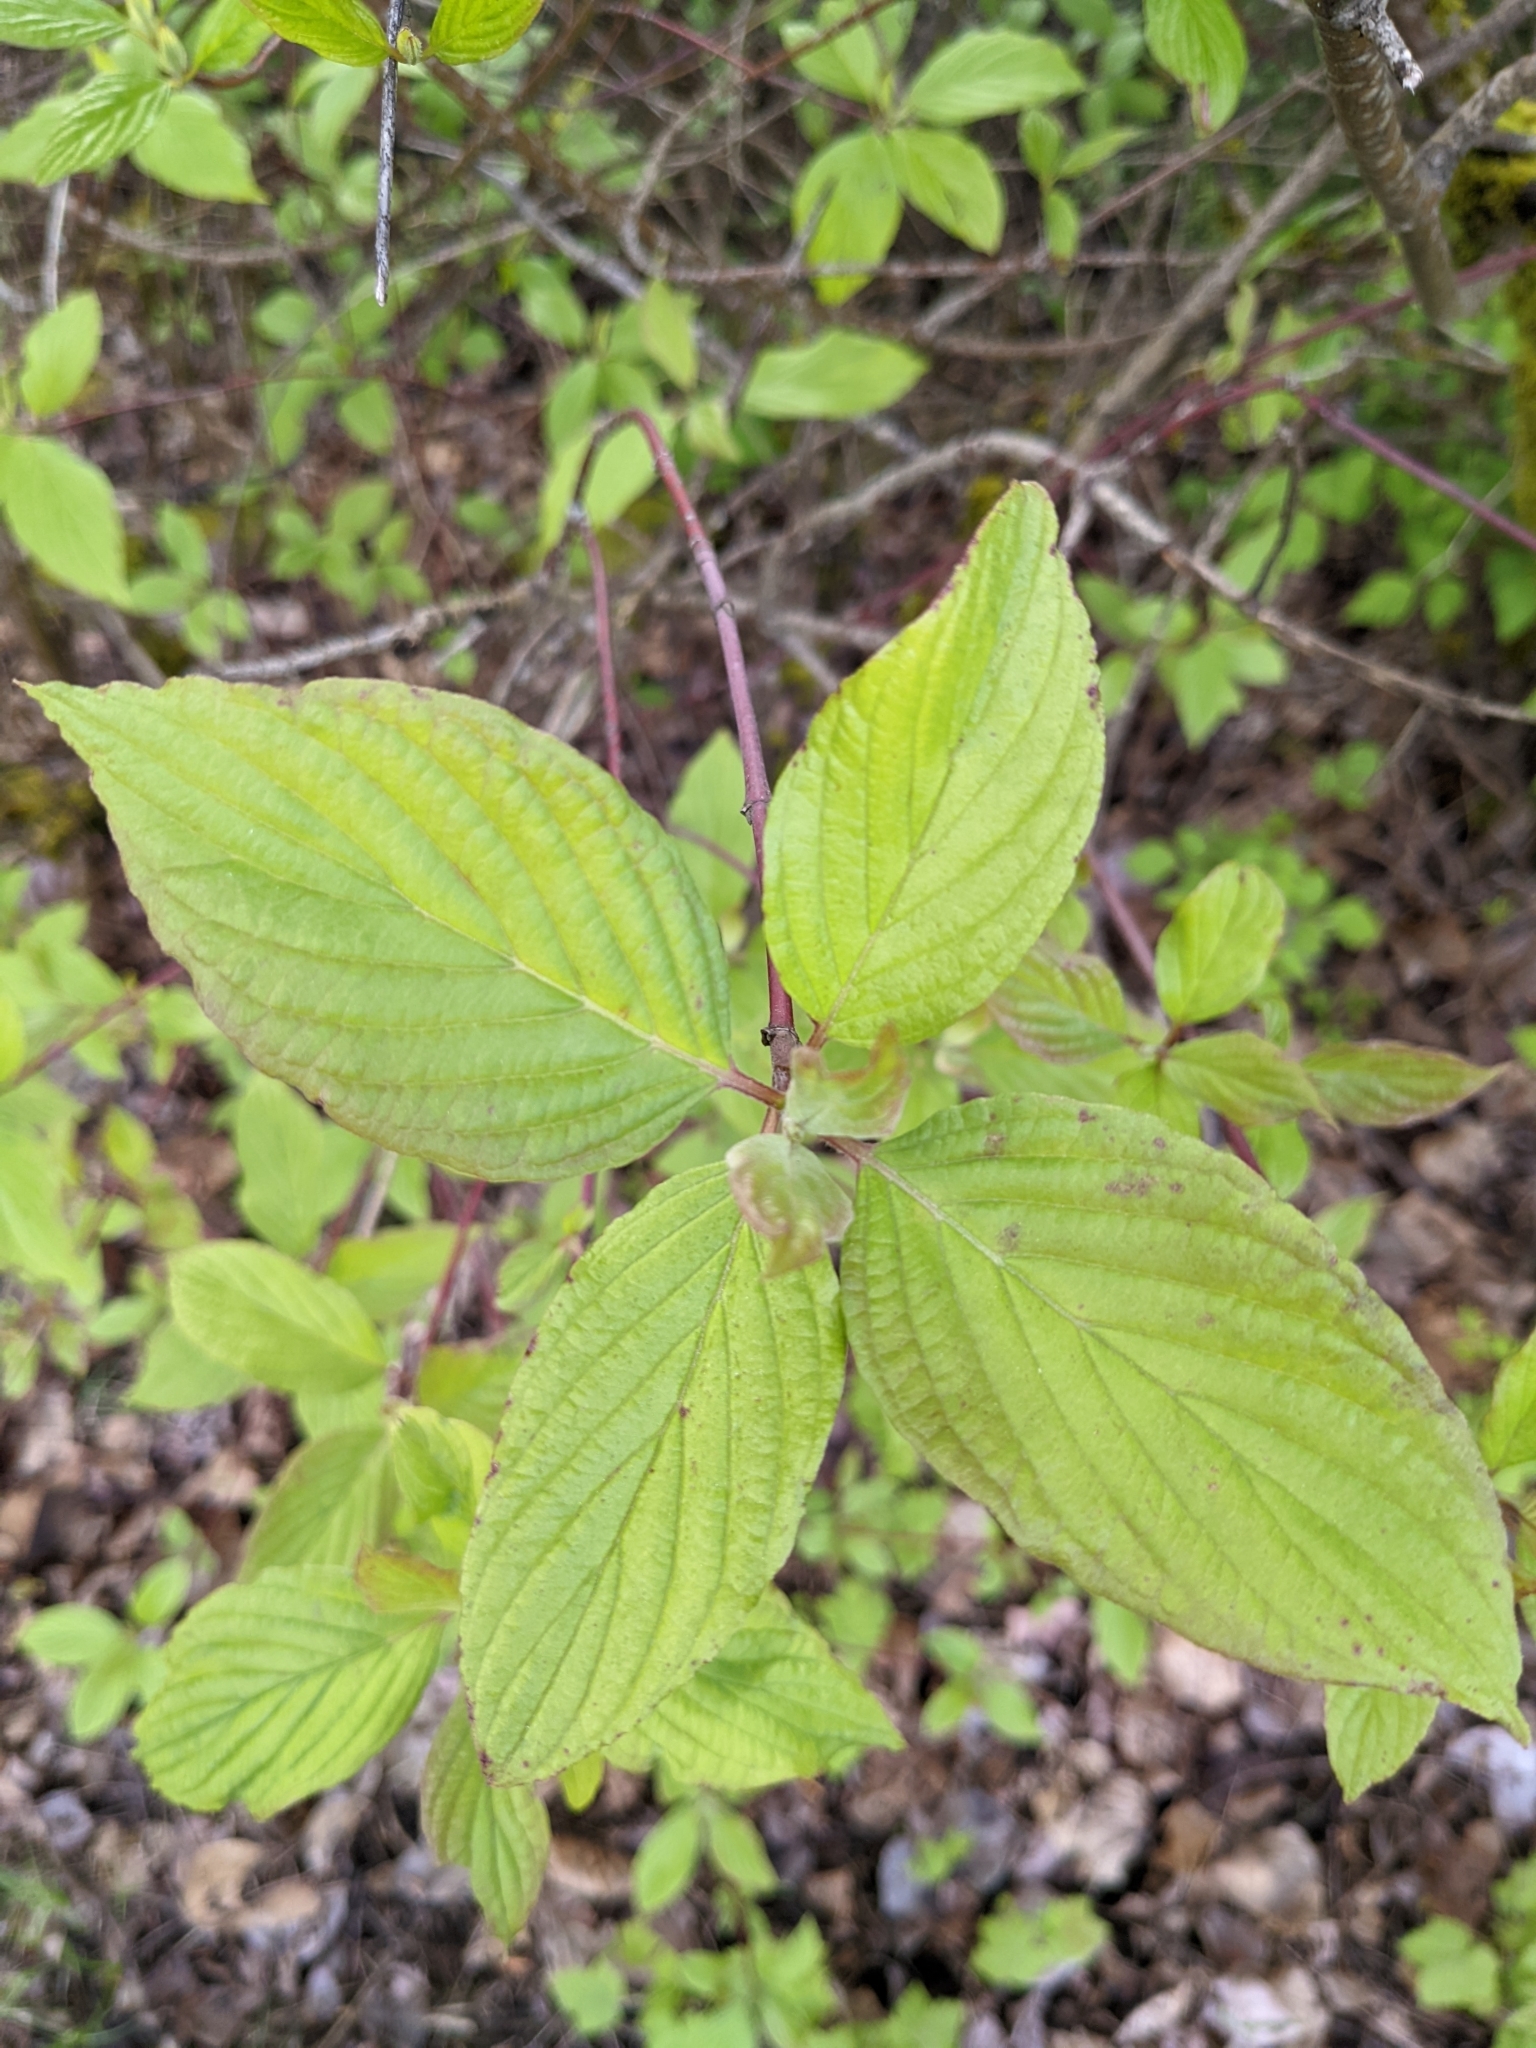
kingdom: Plantae
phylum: Tracheophyta
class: Magnoliopsida
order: Cornales
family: Cornaceae
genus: Cornus
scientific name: Cornus sericea
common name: Red-osier dogwood
